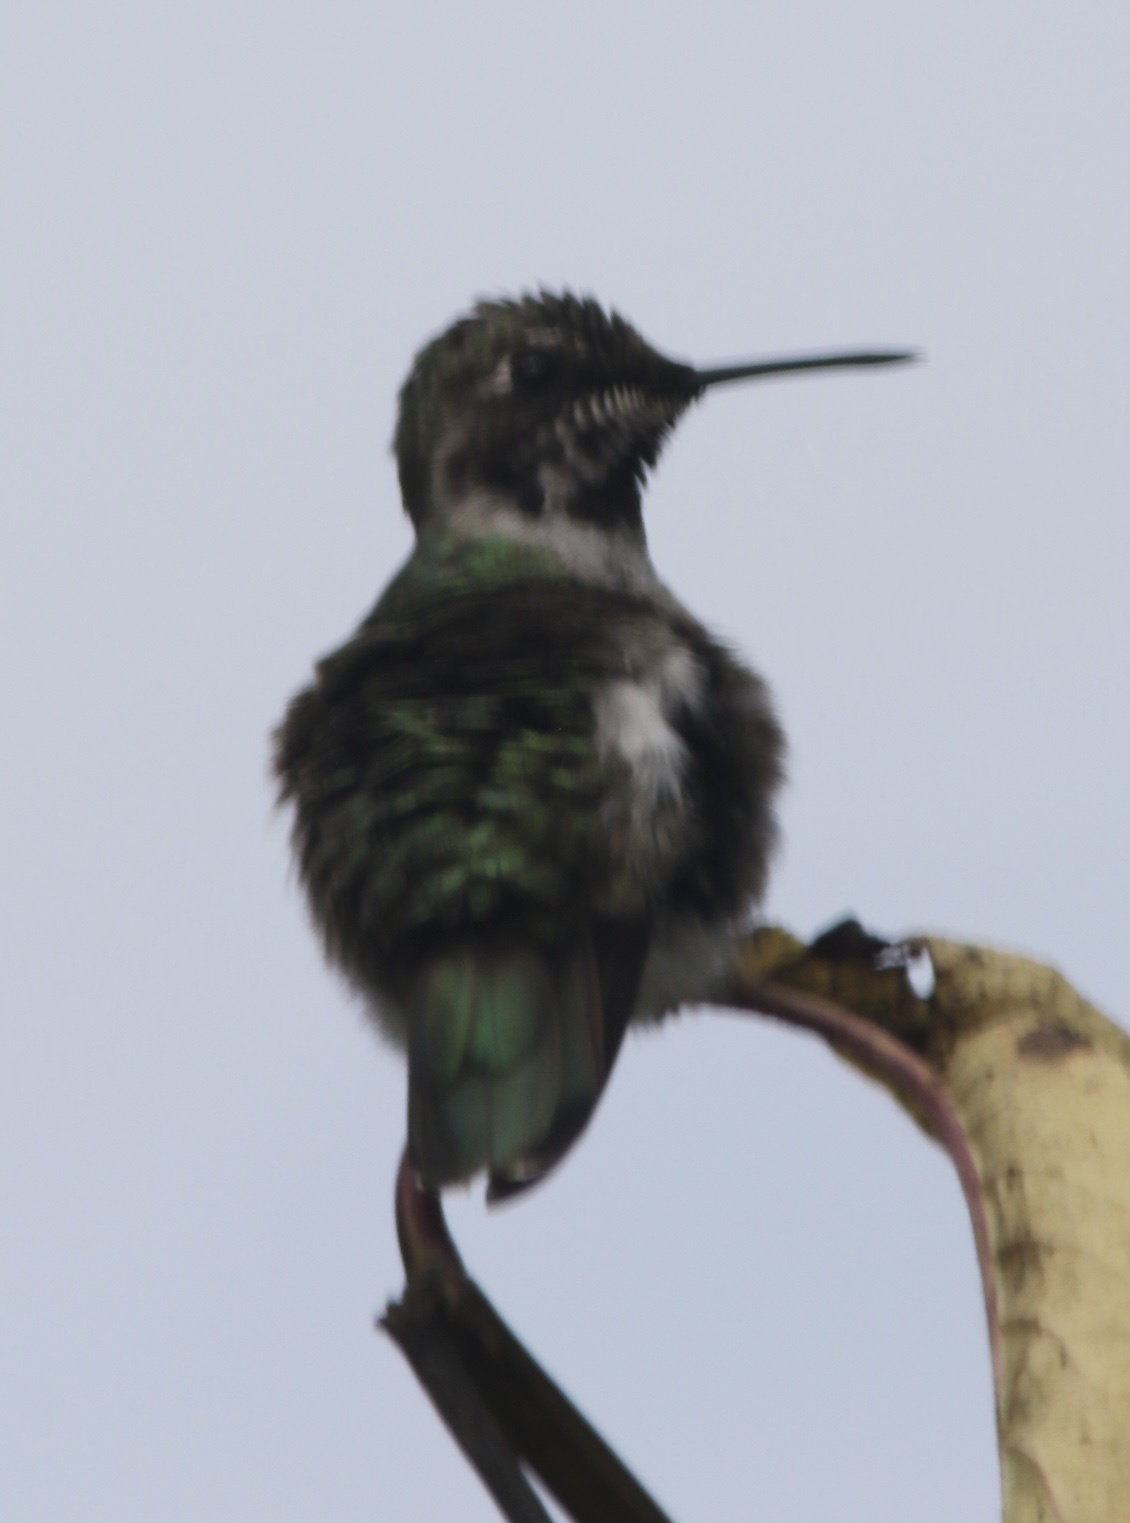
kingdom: Animalia
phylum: Chordata
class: Aves
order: Apodiformes
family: Trochilidae
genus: Calypte
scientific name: Calypte anna
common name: Anna's hummingbird
